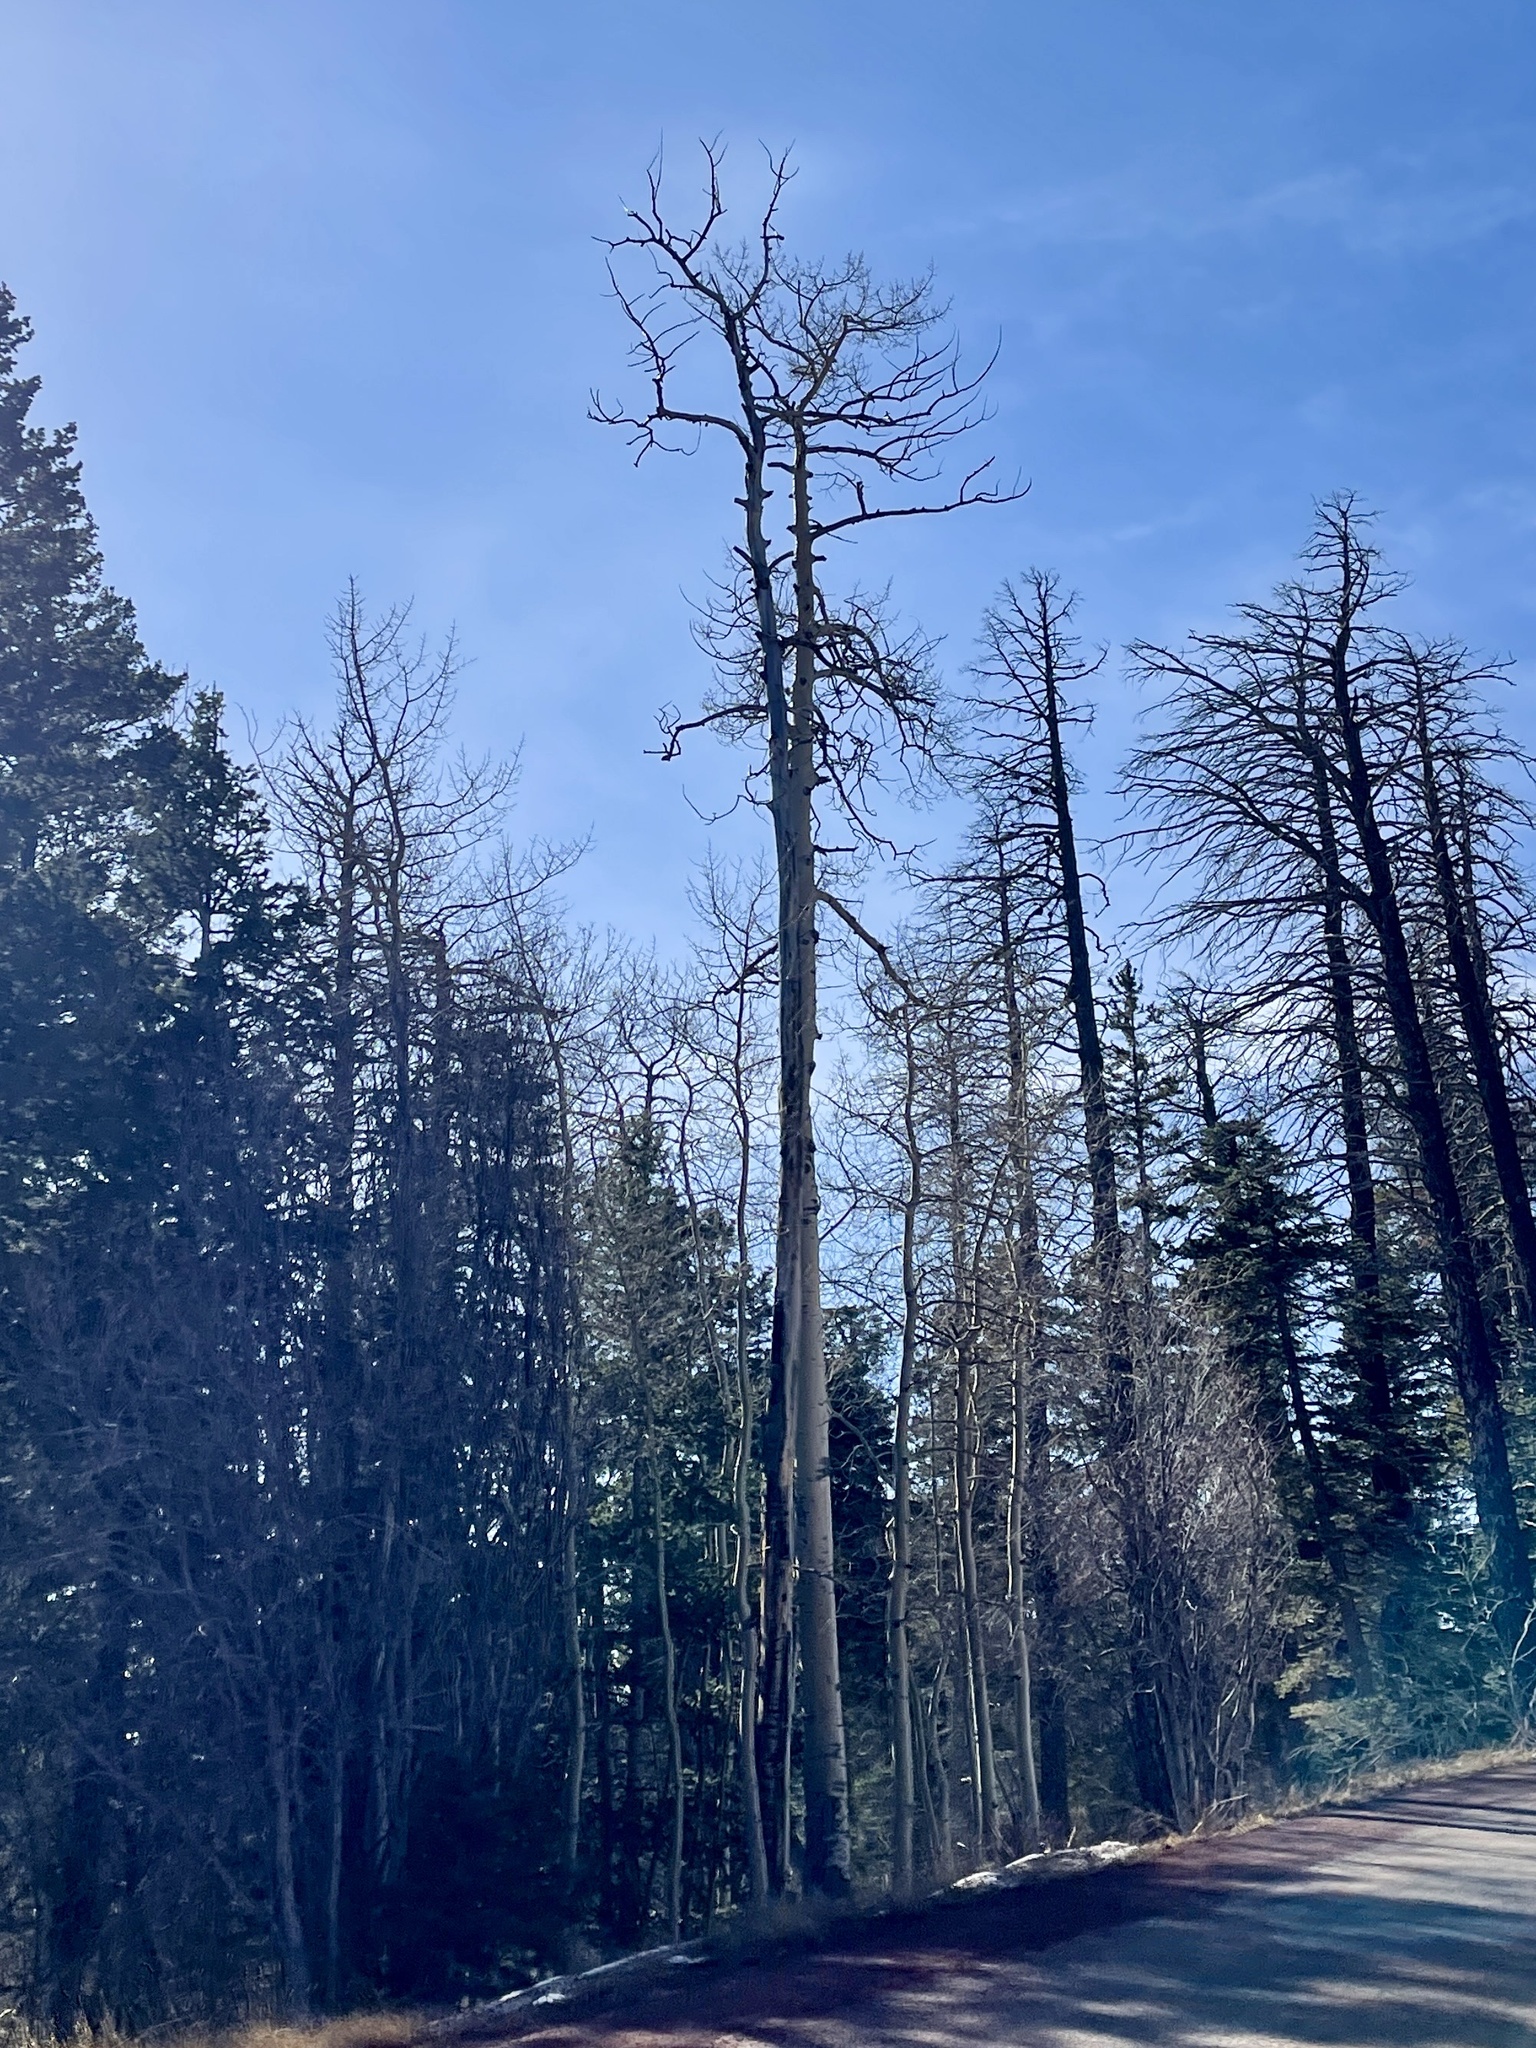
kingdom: Plantae
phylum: Tracheophyta
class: Magnoliopsida
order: Malpighiales
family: Salicaceae
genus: Populus
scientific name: Populus tremuloides
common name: Quaking aspen
